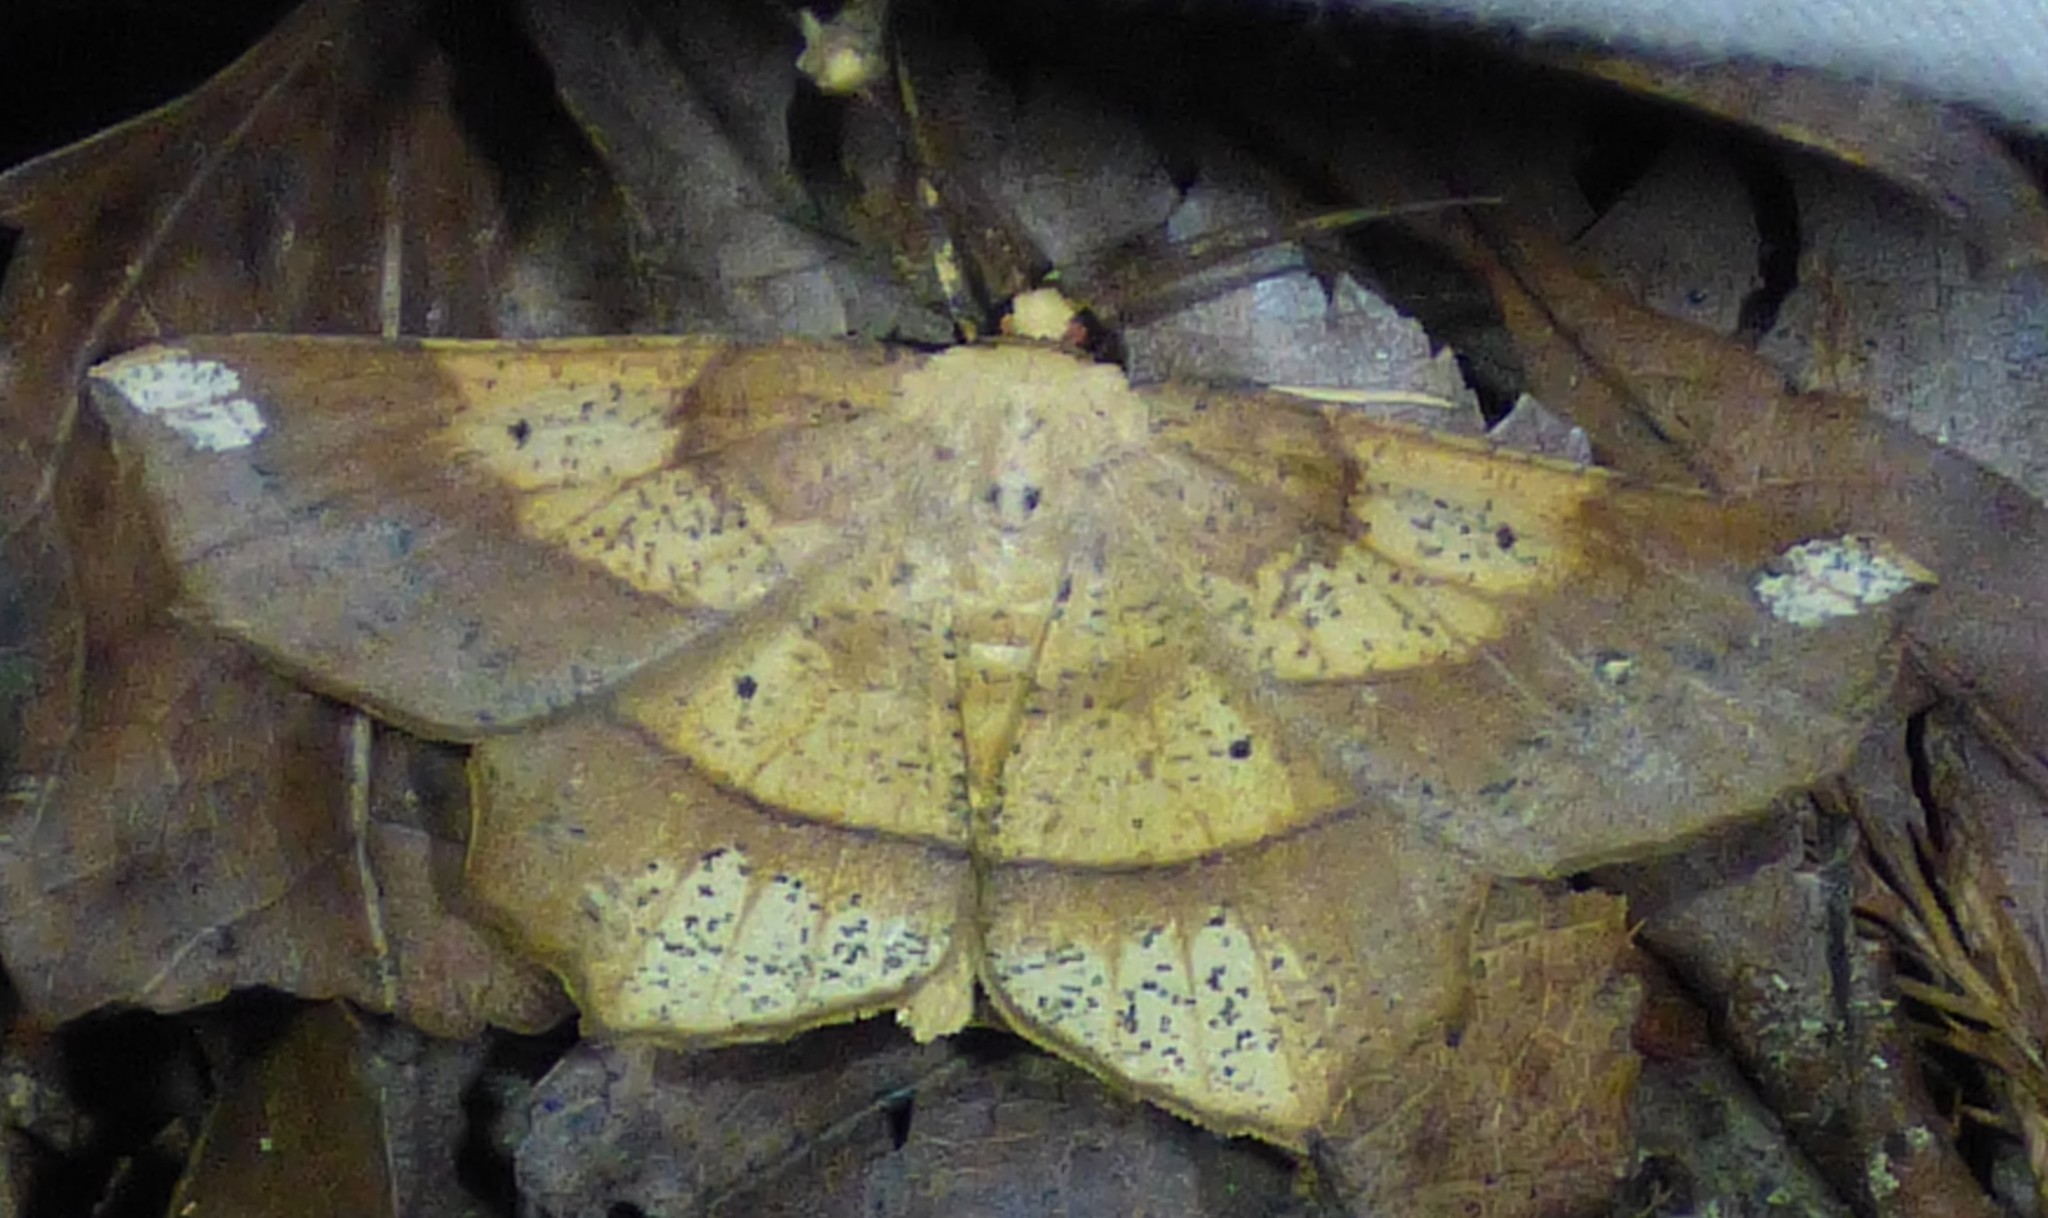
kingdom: Animalia
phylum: Arthropoda
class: Insecta
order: Lepidoptera
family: Geometridae
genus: Euchlaena
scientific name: Euchlaena amoenaria
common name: Deep yellow euchlaena
